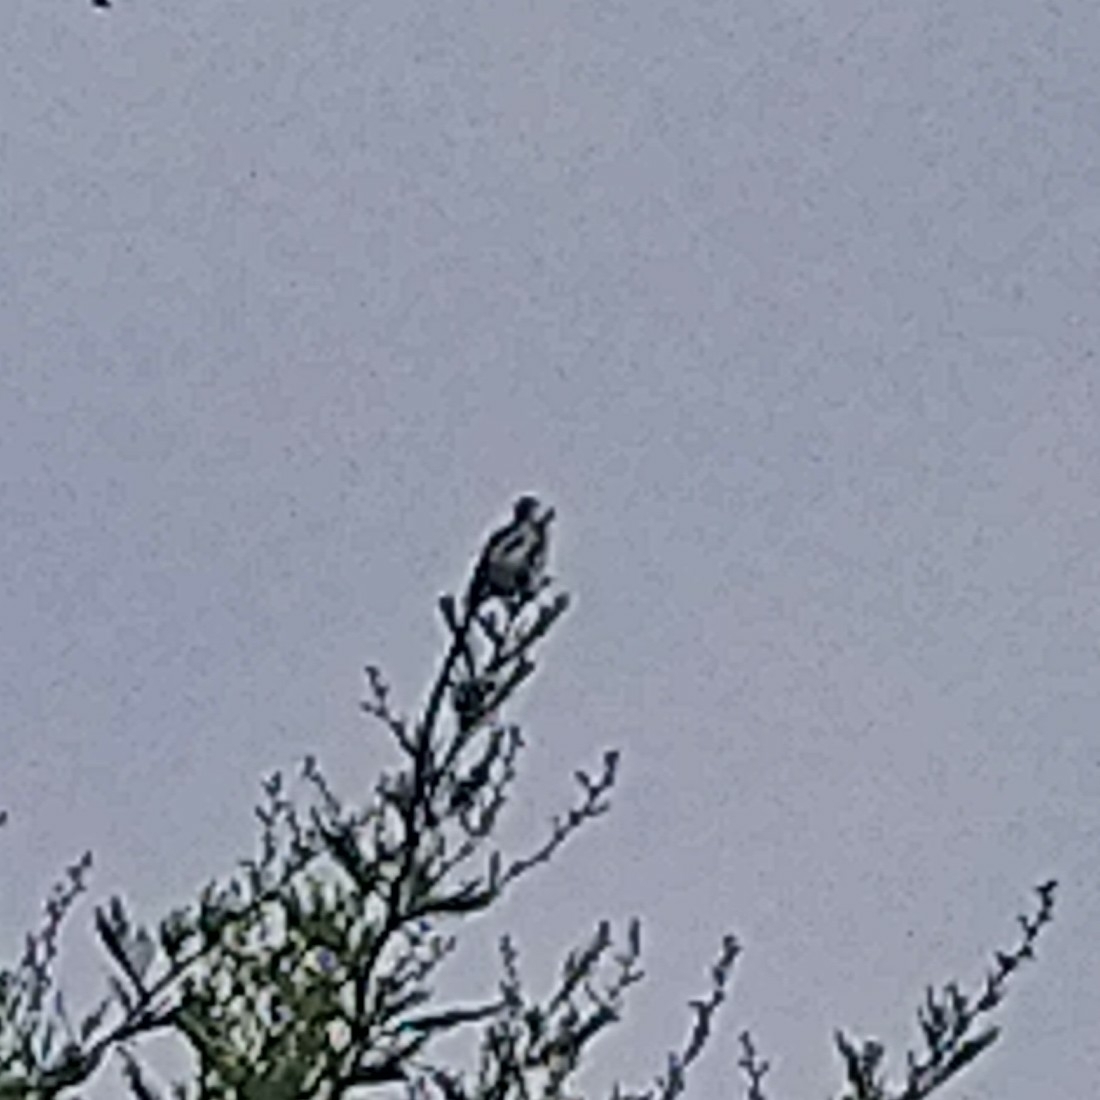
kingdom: Animalia
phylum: Chordata
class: Aves
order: Passeriformes
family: Viduidae
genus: Vidua
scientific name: Vidua macroura
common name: Pin-tailed whydah
